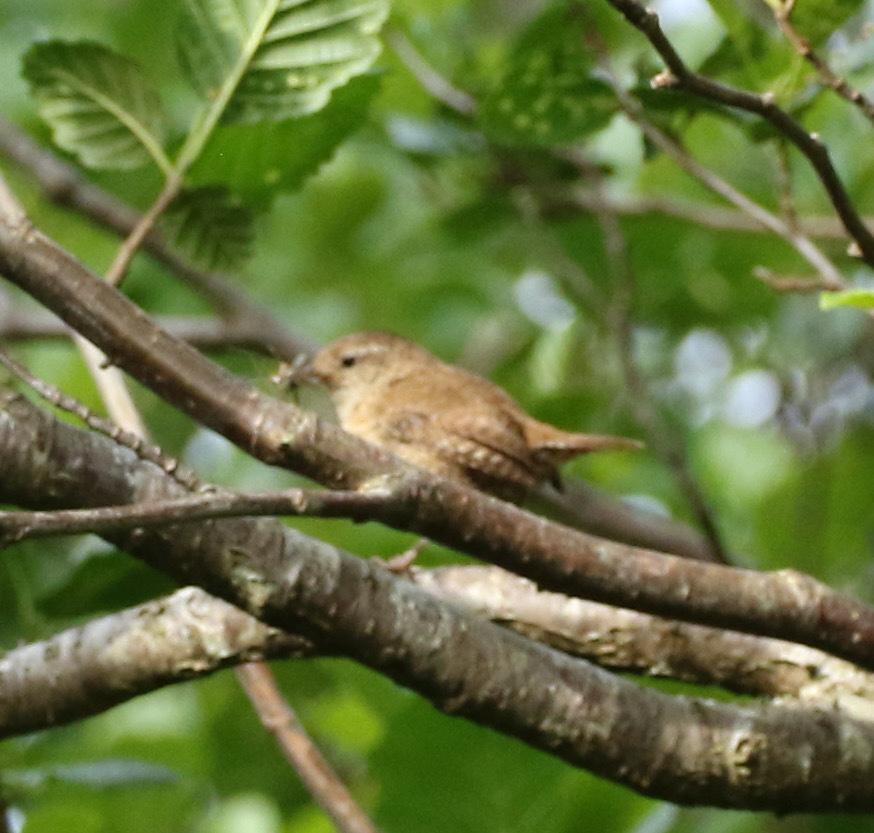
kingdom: Animalia
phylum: Chordata
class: Aves
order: Passeriformes
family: Troglodytidae
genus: Troglodytes
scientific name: Troglodytes troglodytes
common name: Eurasian wren
